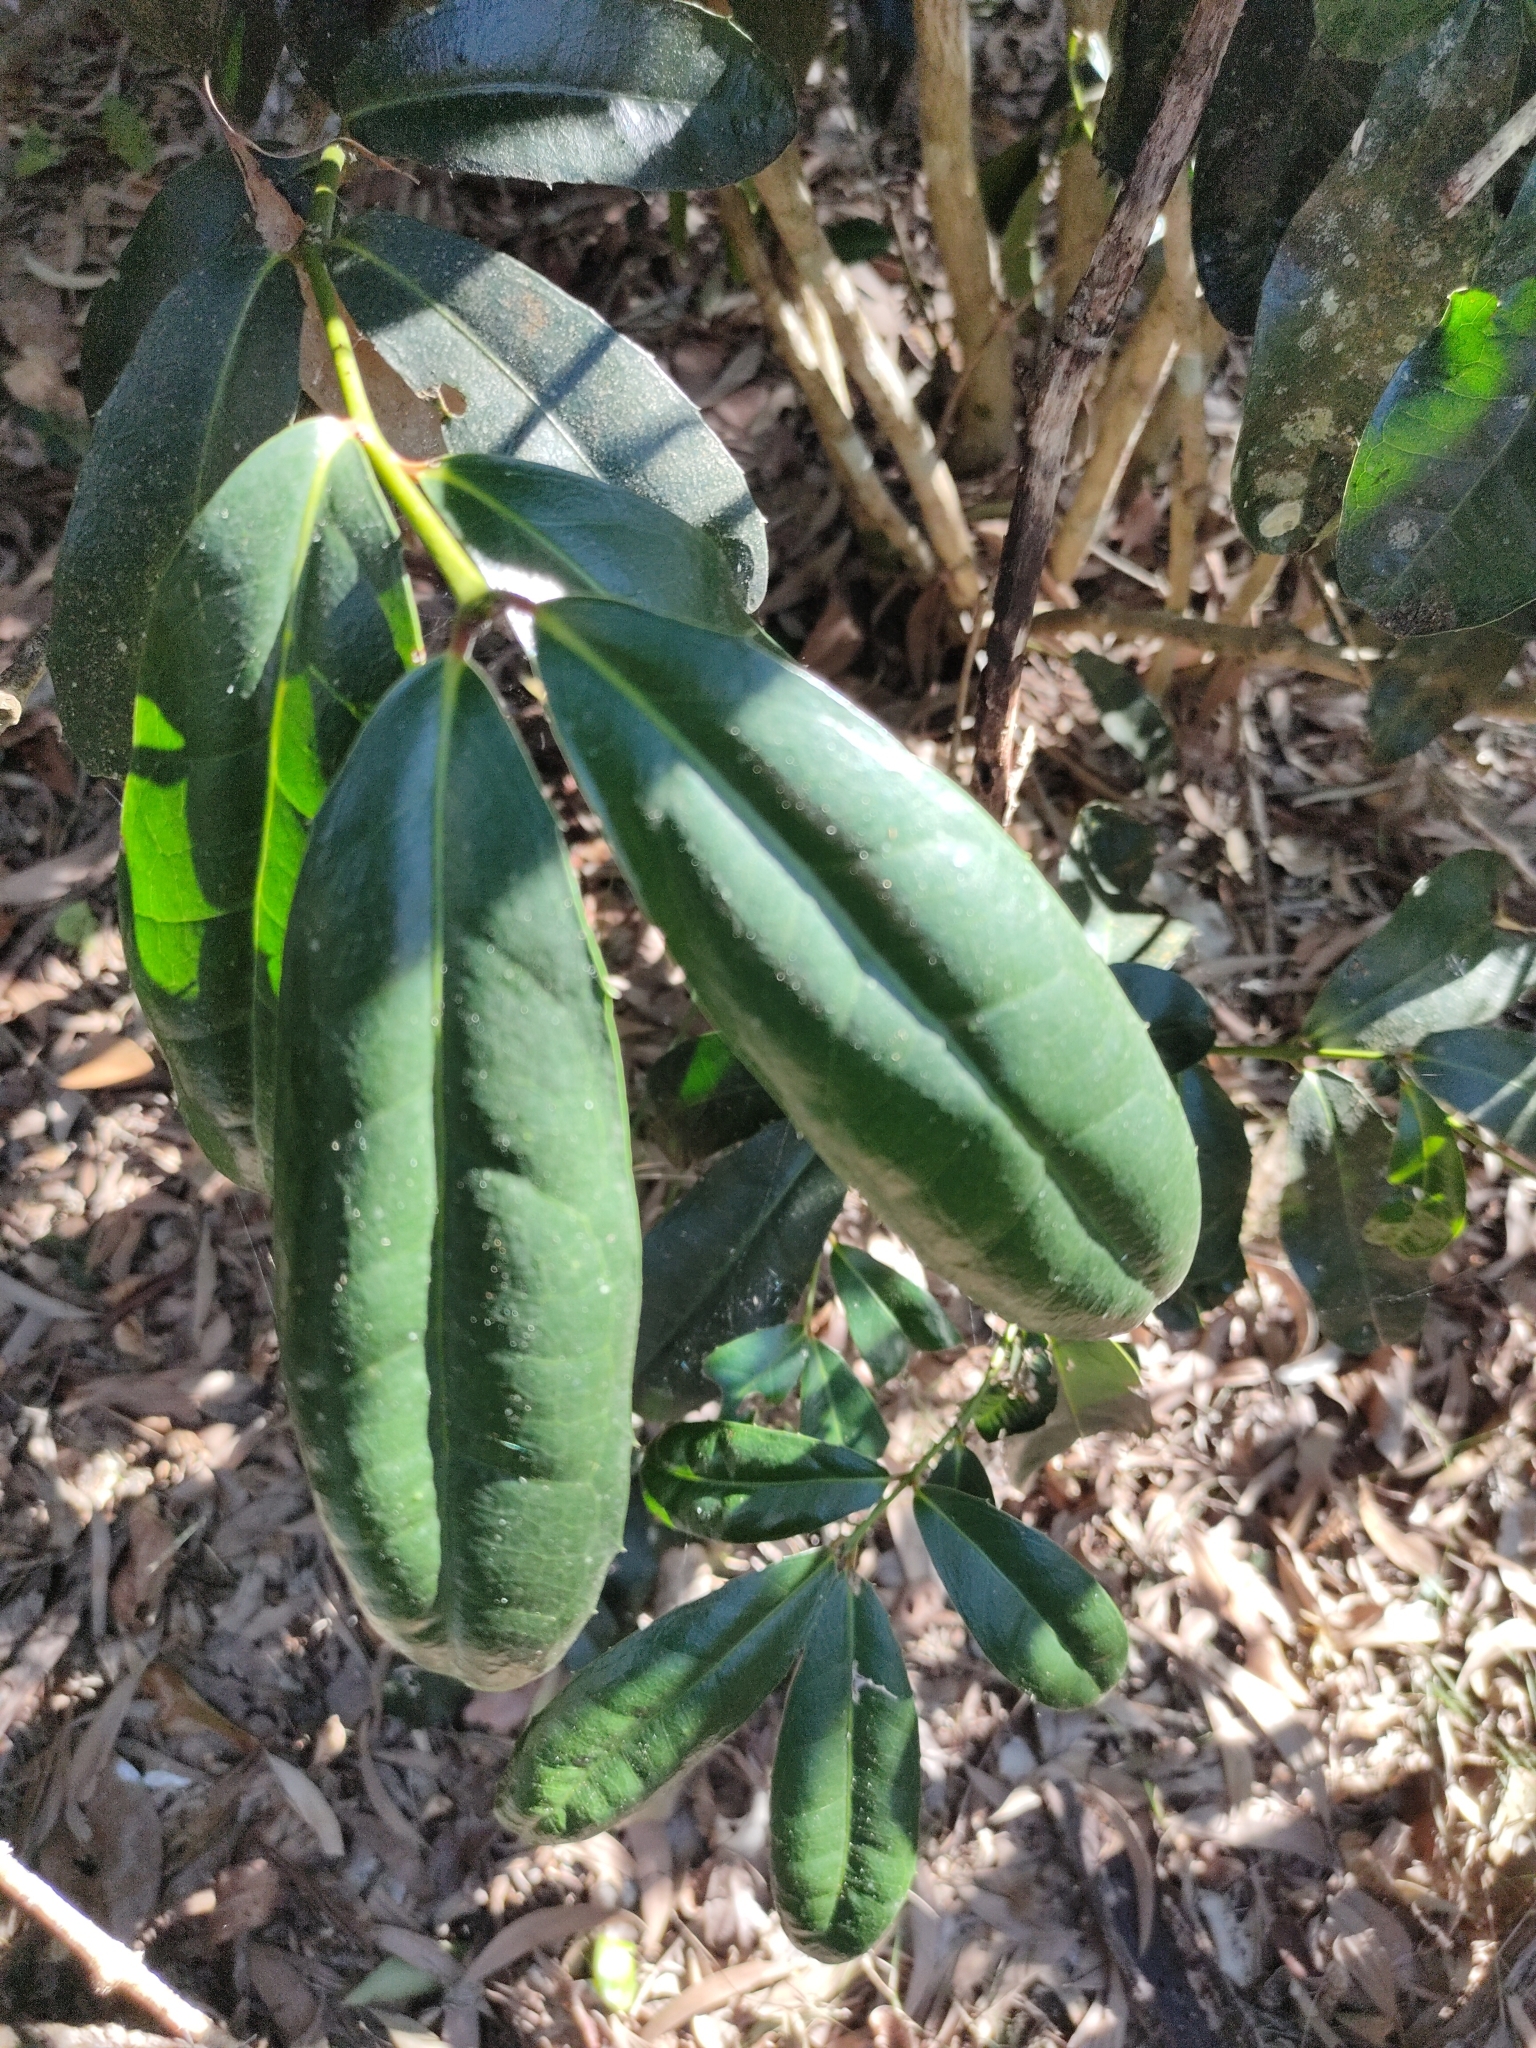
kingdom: Plantae
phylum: Tracheophyta
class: Magnoliopsida
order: Laurales
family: Monimiaceae
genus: Wilkiea
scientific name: Wilkiea macrophylla
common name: Large-leaved wilkiea
